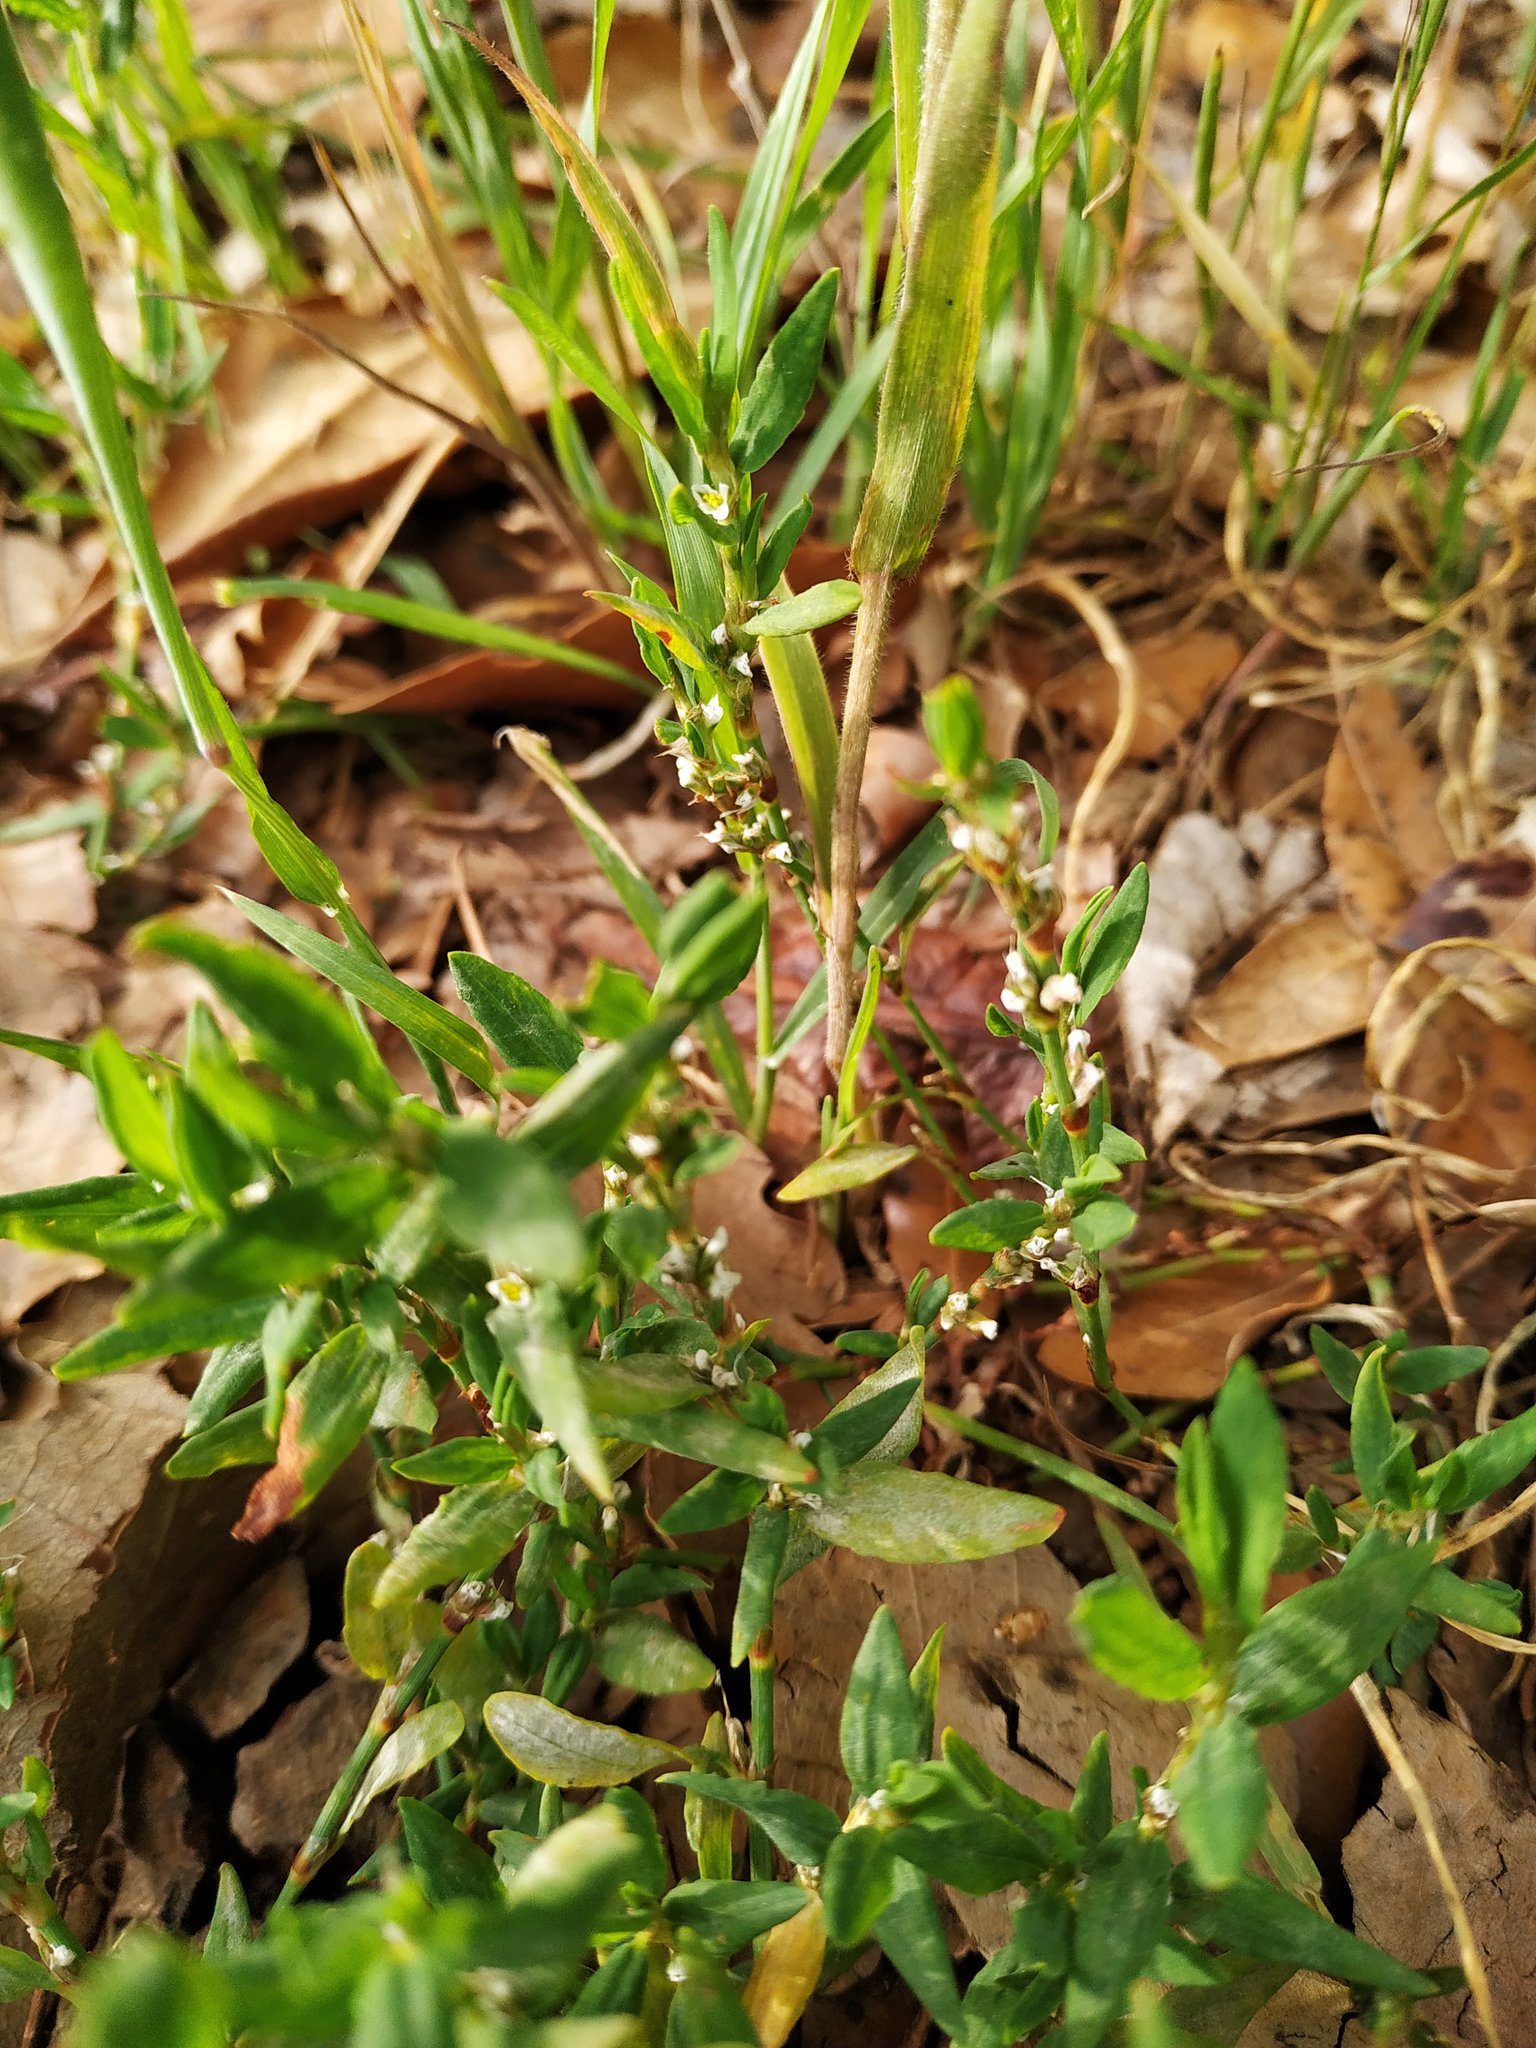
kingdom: Plantae
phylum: Tracheophyta
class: Magnoliopsida
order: Caryophyllales
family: Polygonaceae
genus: Polygonum
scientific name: Polygonum aviculare
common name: Prostrate knotweed
